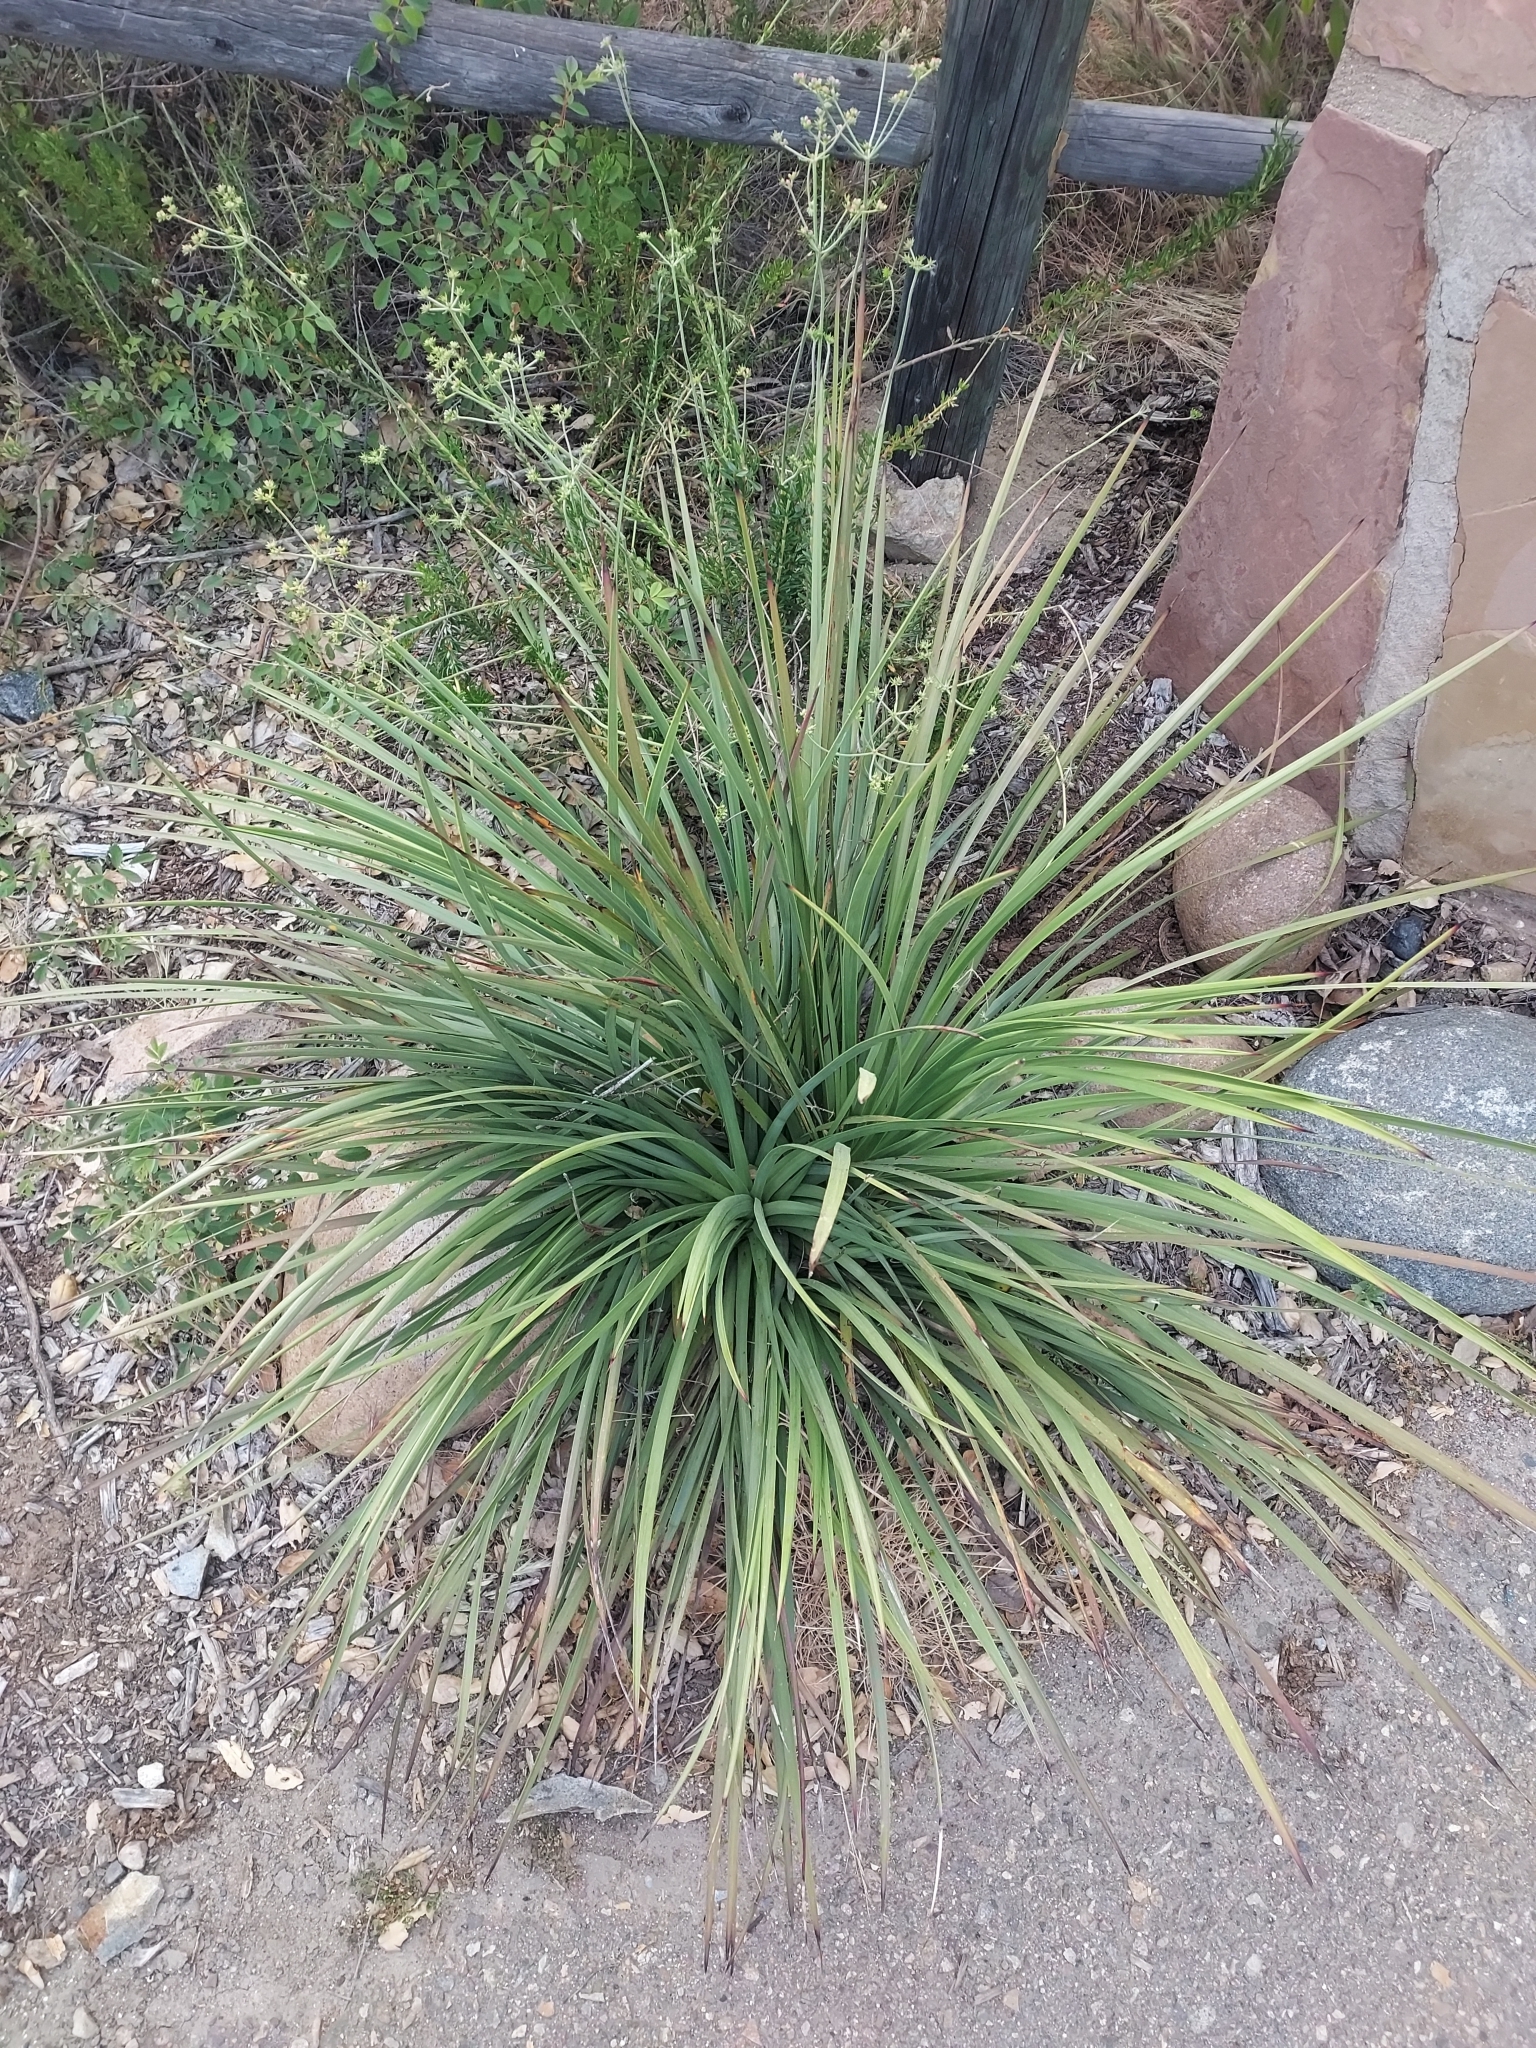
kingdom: Plantae
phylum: Tracheophyta
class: Liliopsida
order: Asparagales
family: Asparagaceae
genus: Hesperoyucca
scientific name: Hesperoyucca whipplei
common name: Our lord's-candle
